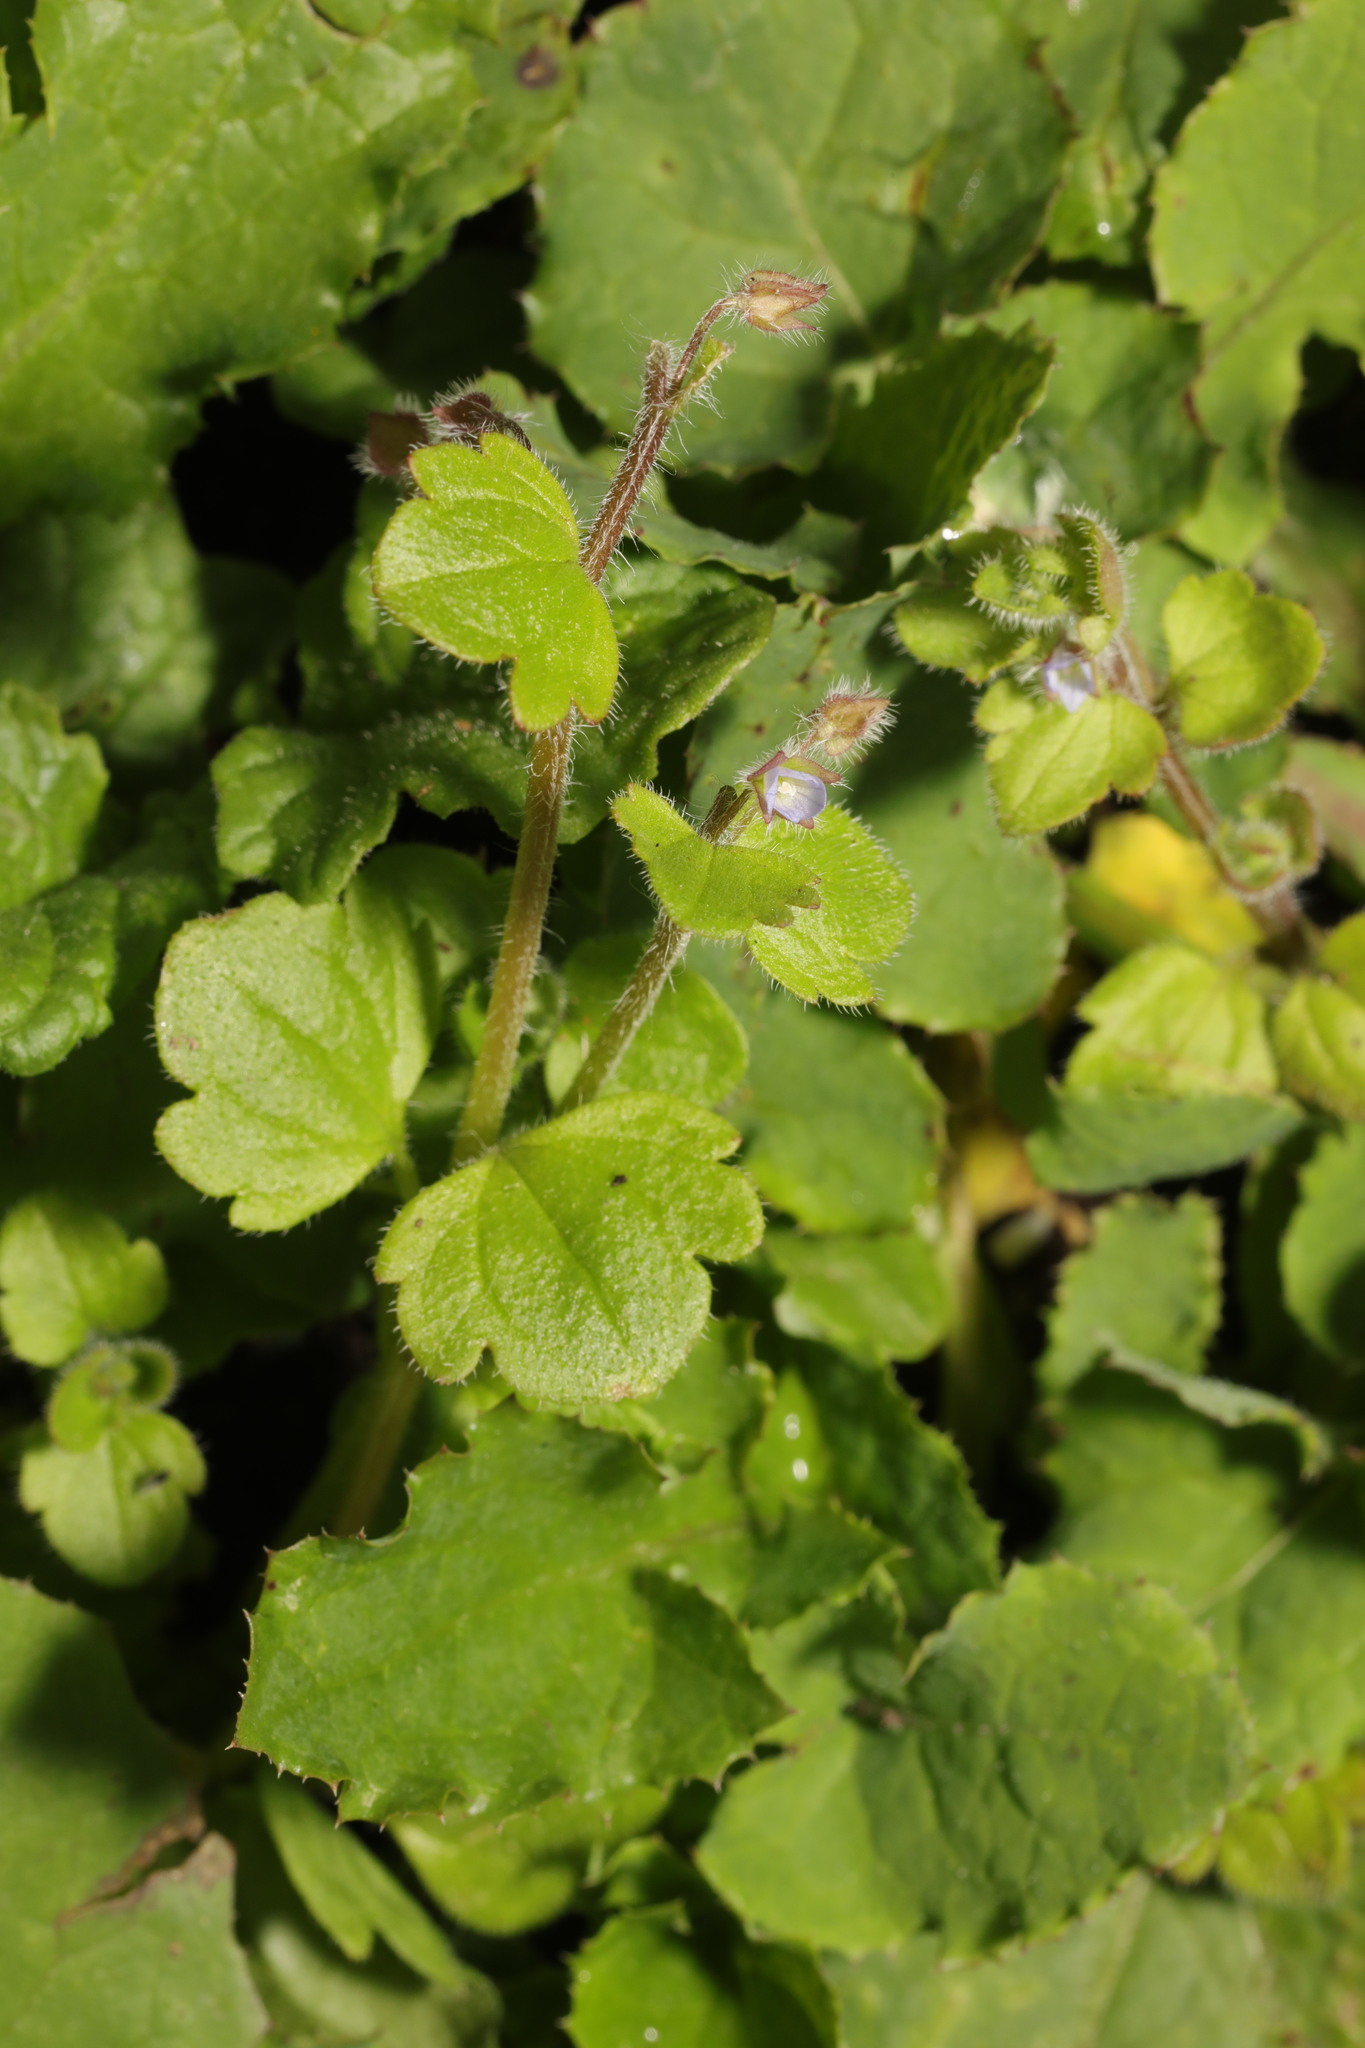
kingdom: Plantae
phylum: Tracheophyta
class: Magnoliopsida
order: Lamiales
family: Plantaginaceae
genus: Veronica
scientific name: Veronica sublobata
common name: False ivy-leaved speedwell
